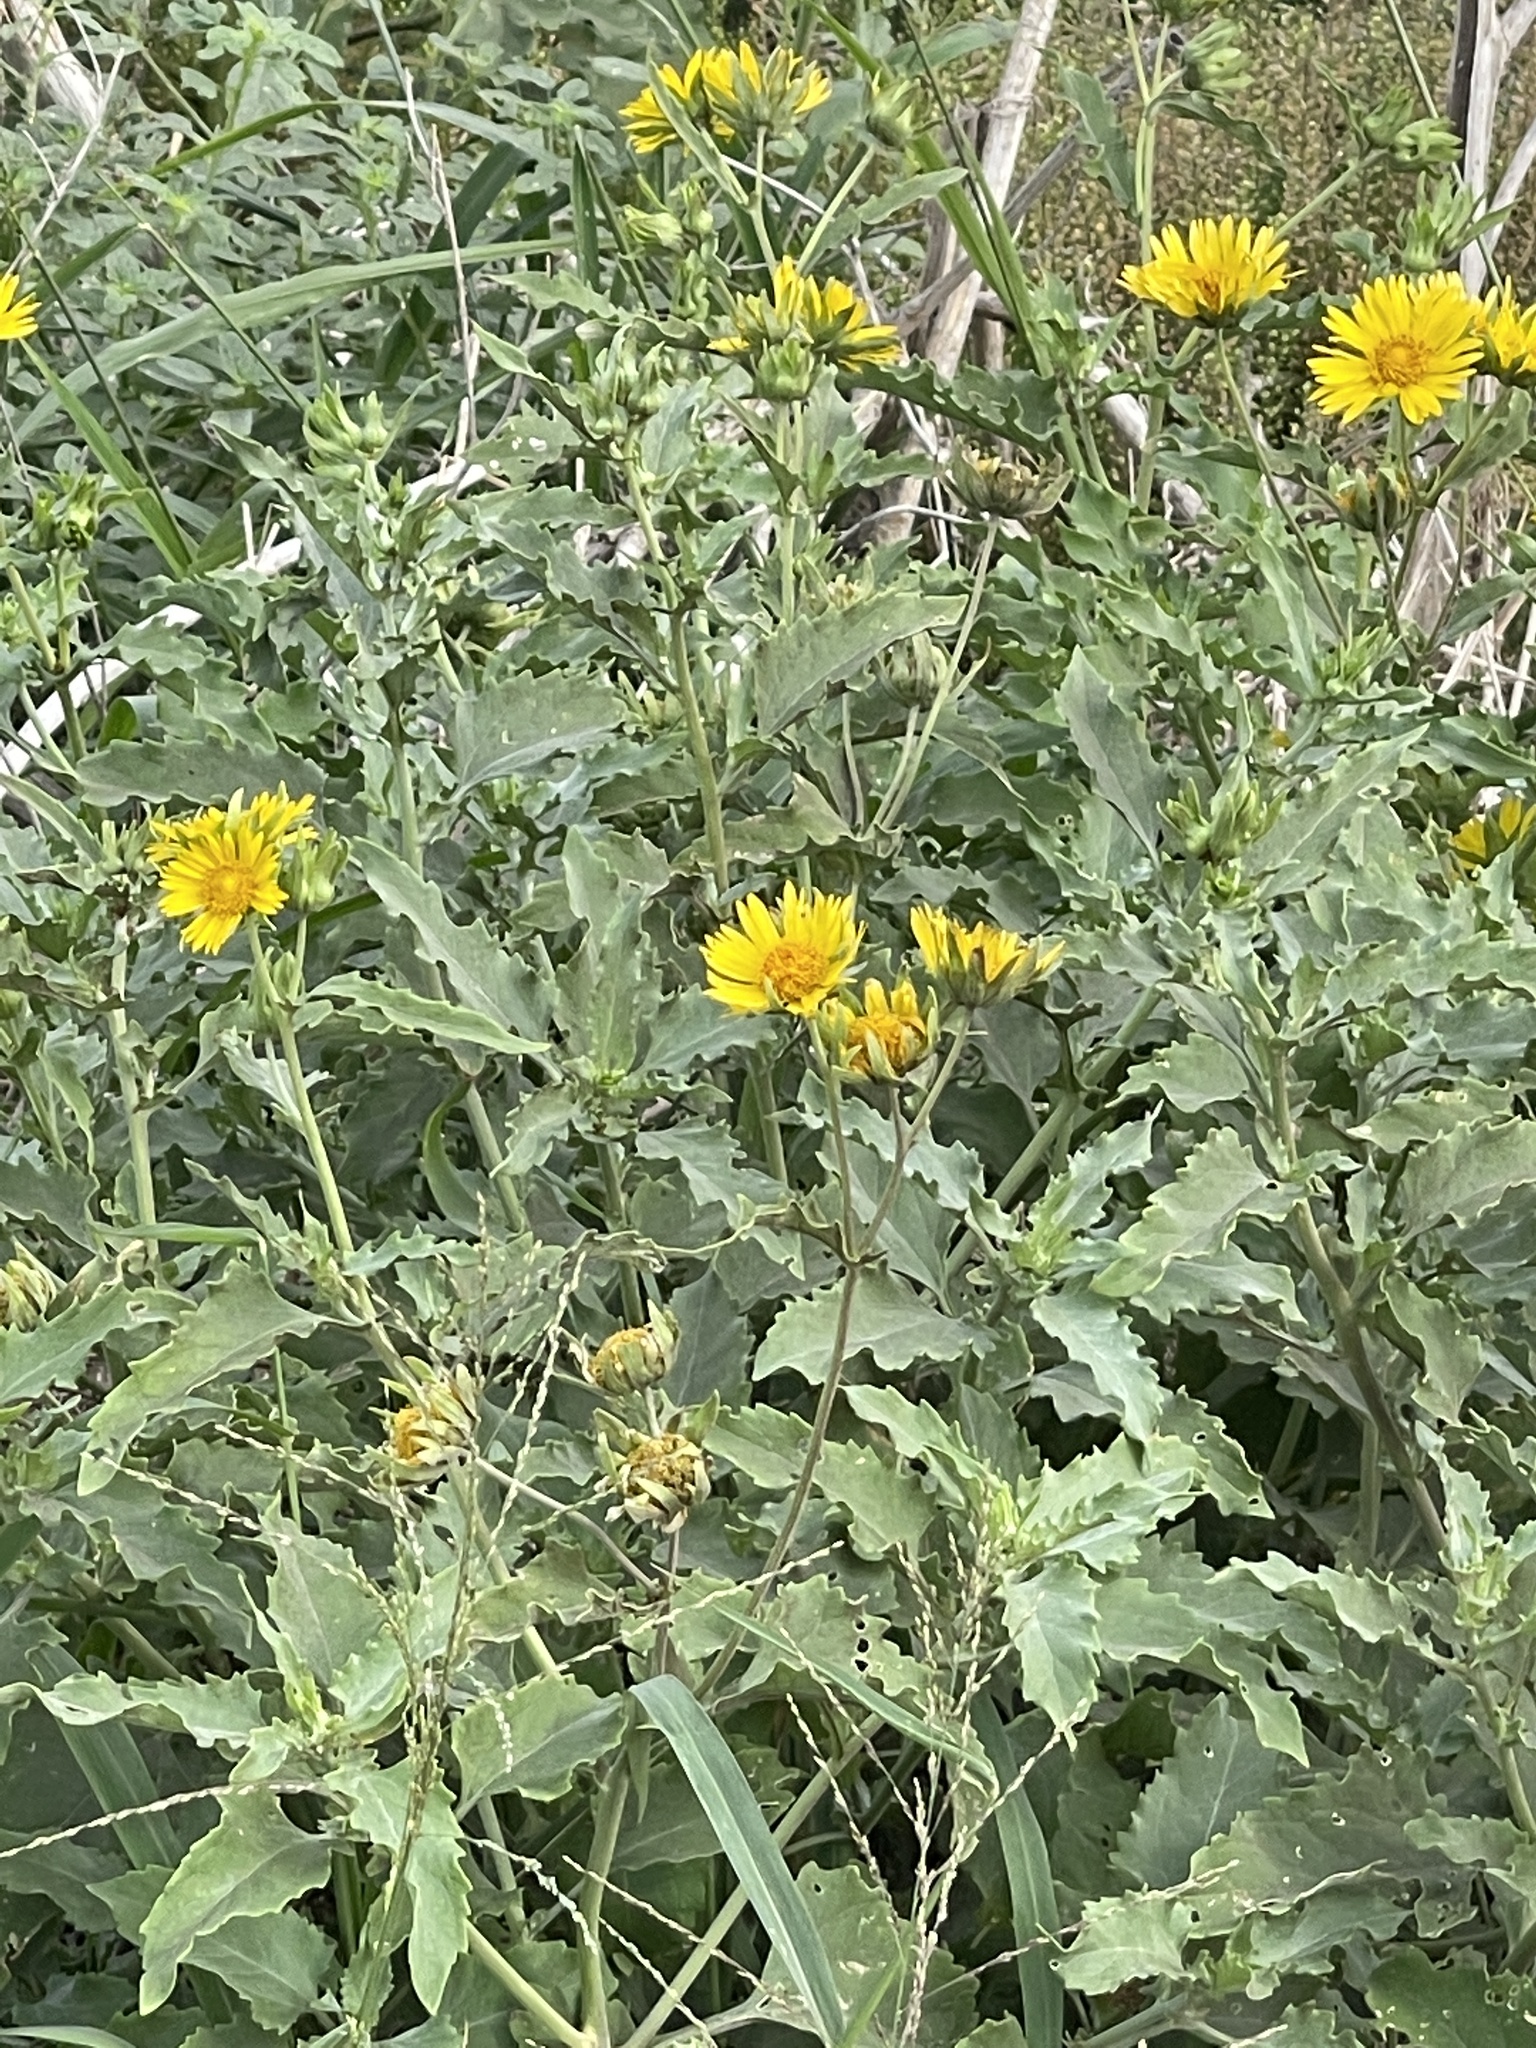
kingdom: Plantae
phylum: Tracheophyta
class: Magnoliopsida
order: Asterales
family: Asteraceae
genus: Verbesina
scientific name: Verbesina encelioides
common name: Golden crownbeard
